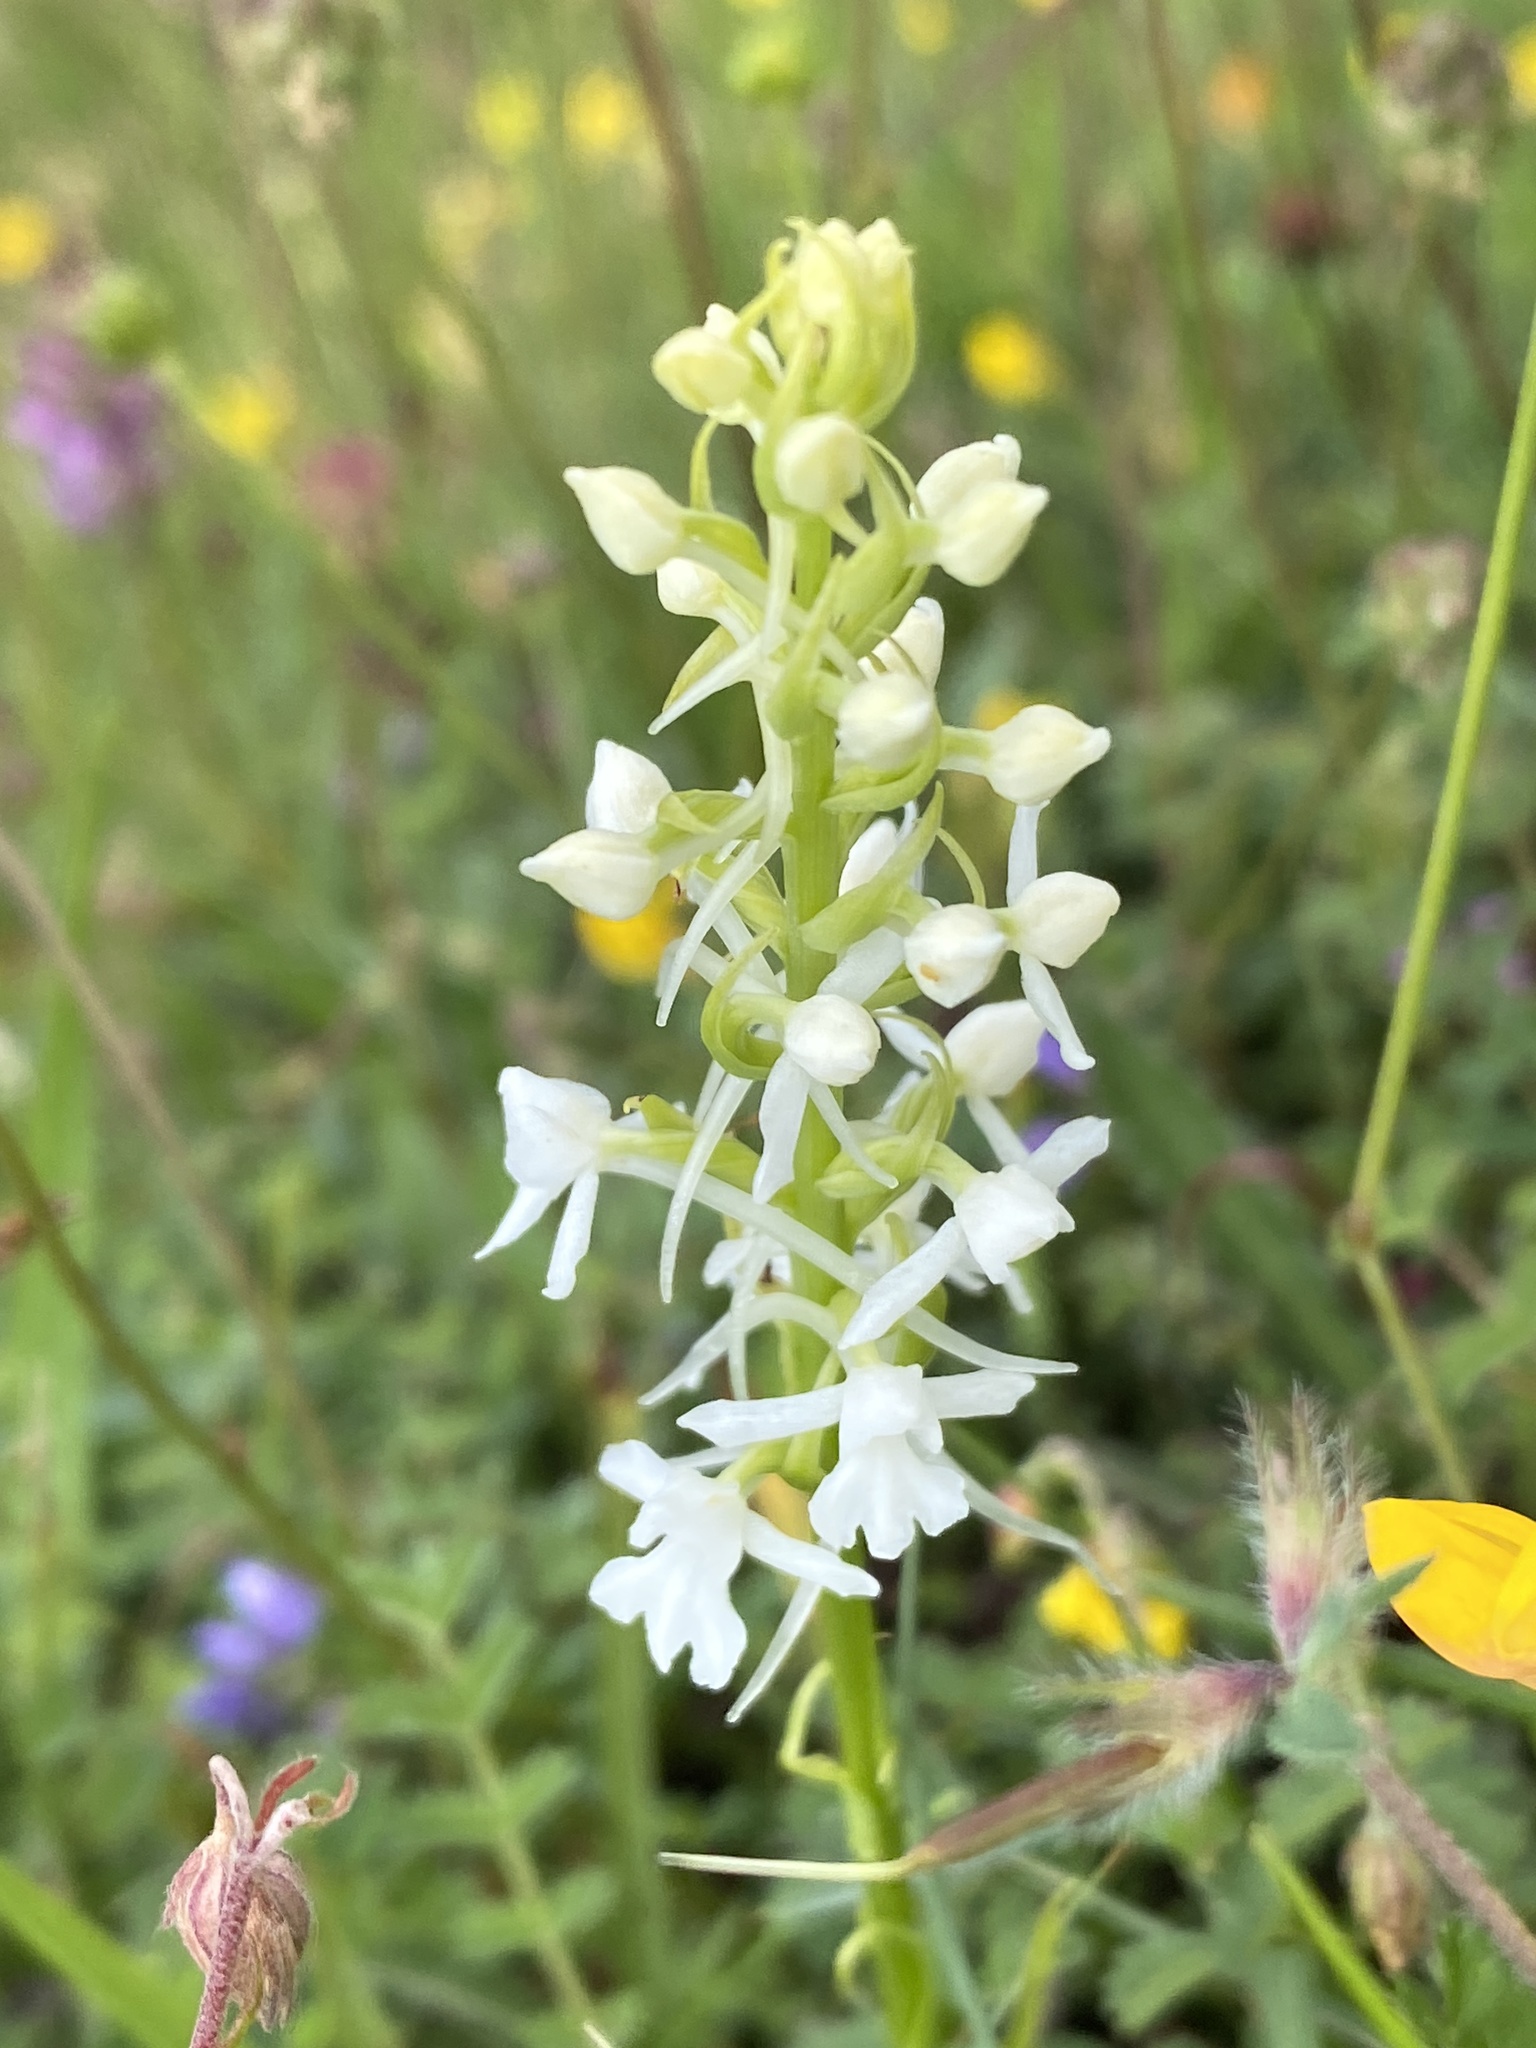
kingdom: Plantae
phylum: Tracheophyta
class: Liliopsida
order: Asparagales
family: Orchidaceae
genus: Gymnadenia
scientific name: Gymnadenia conopsea
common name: Fragrant orchid
